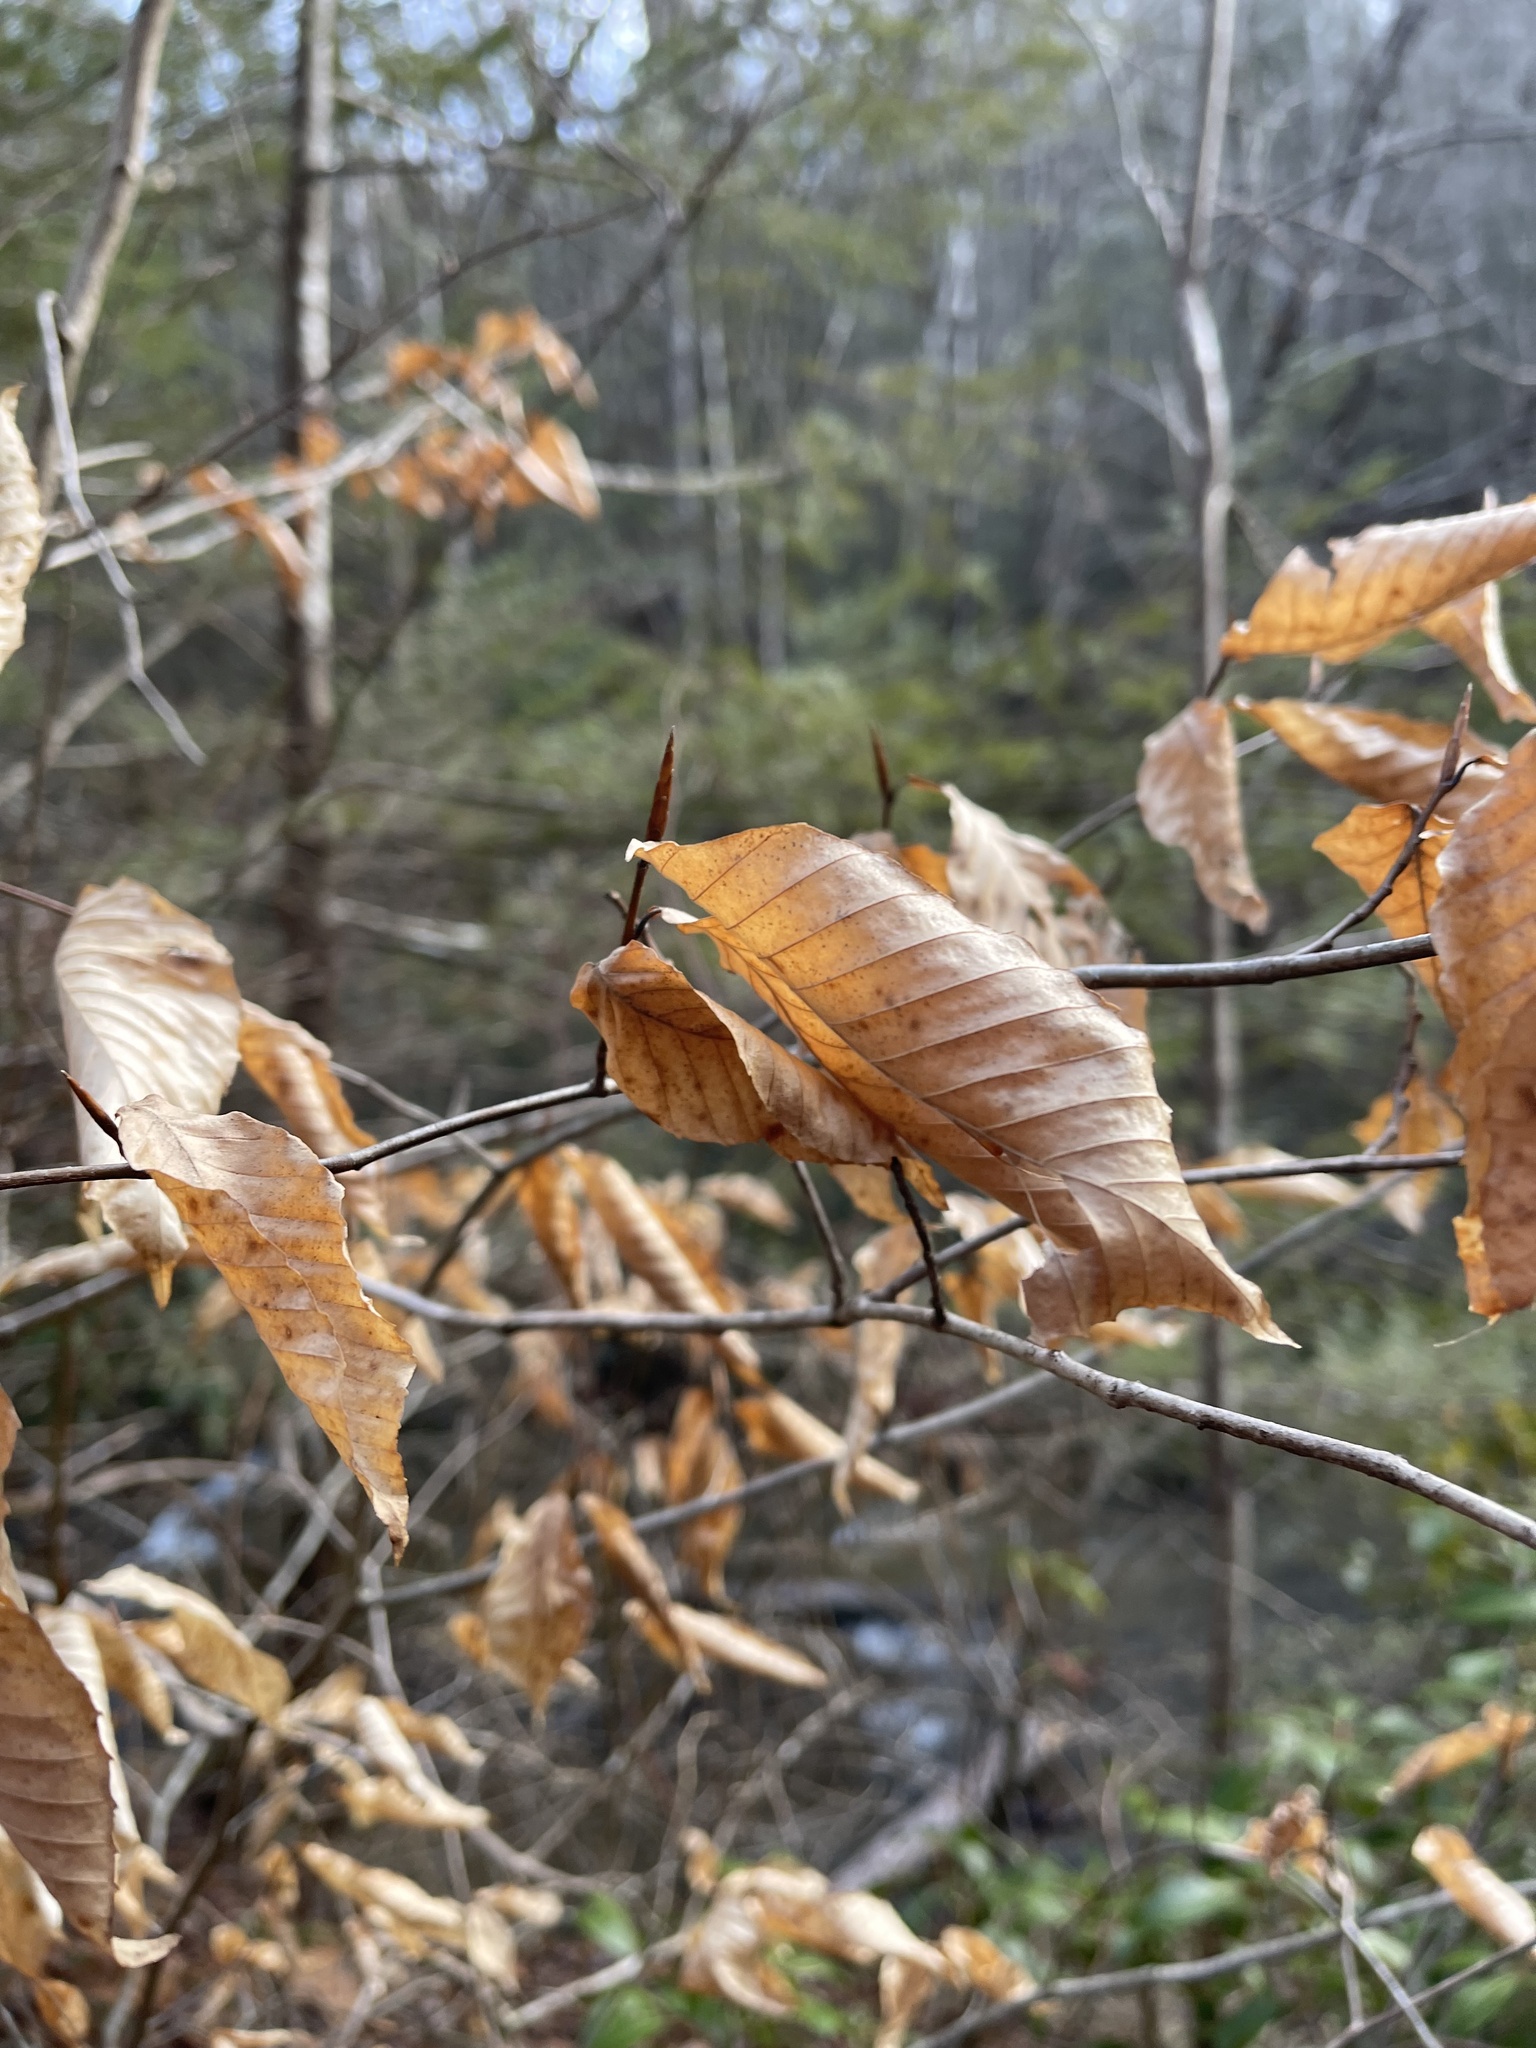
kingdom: Plantae
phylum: Tracheophyta
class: Magnoliopsida
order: Fagales
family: Fagaceae
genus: Fagus
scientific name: Fagus grandifolia
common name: American beech
